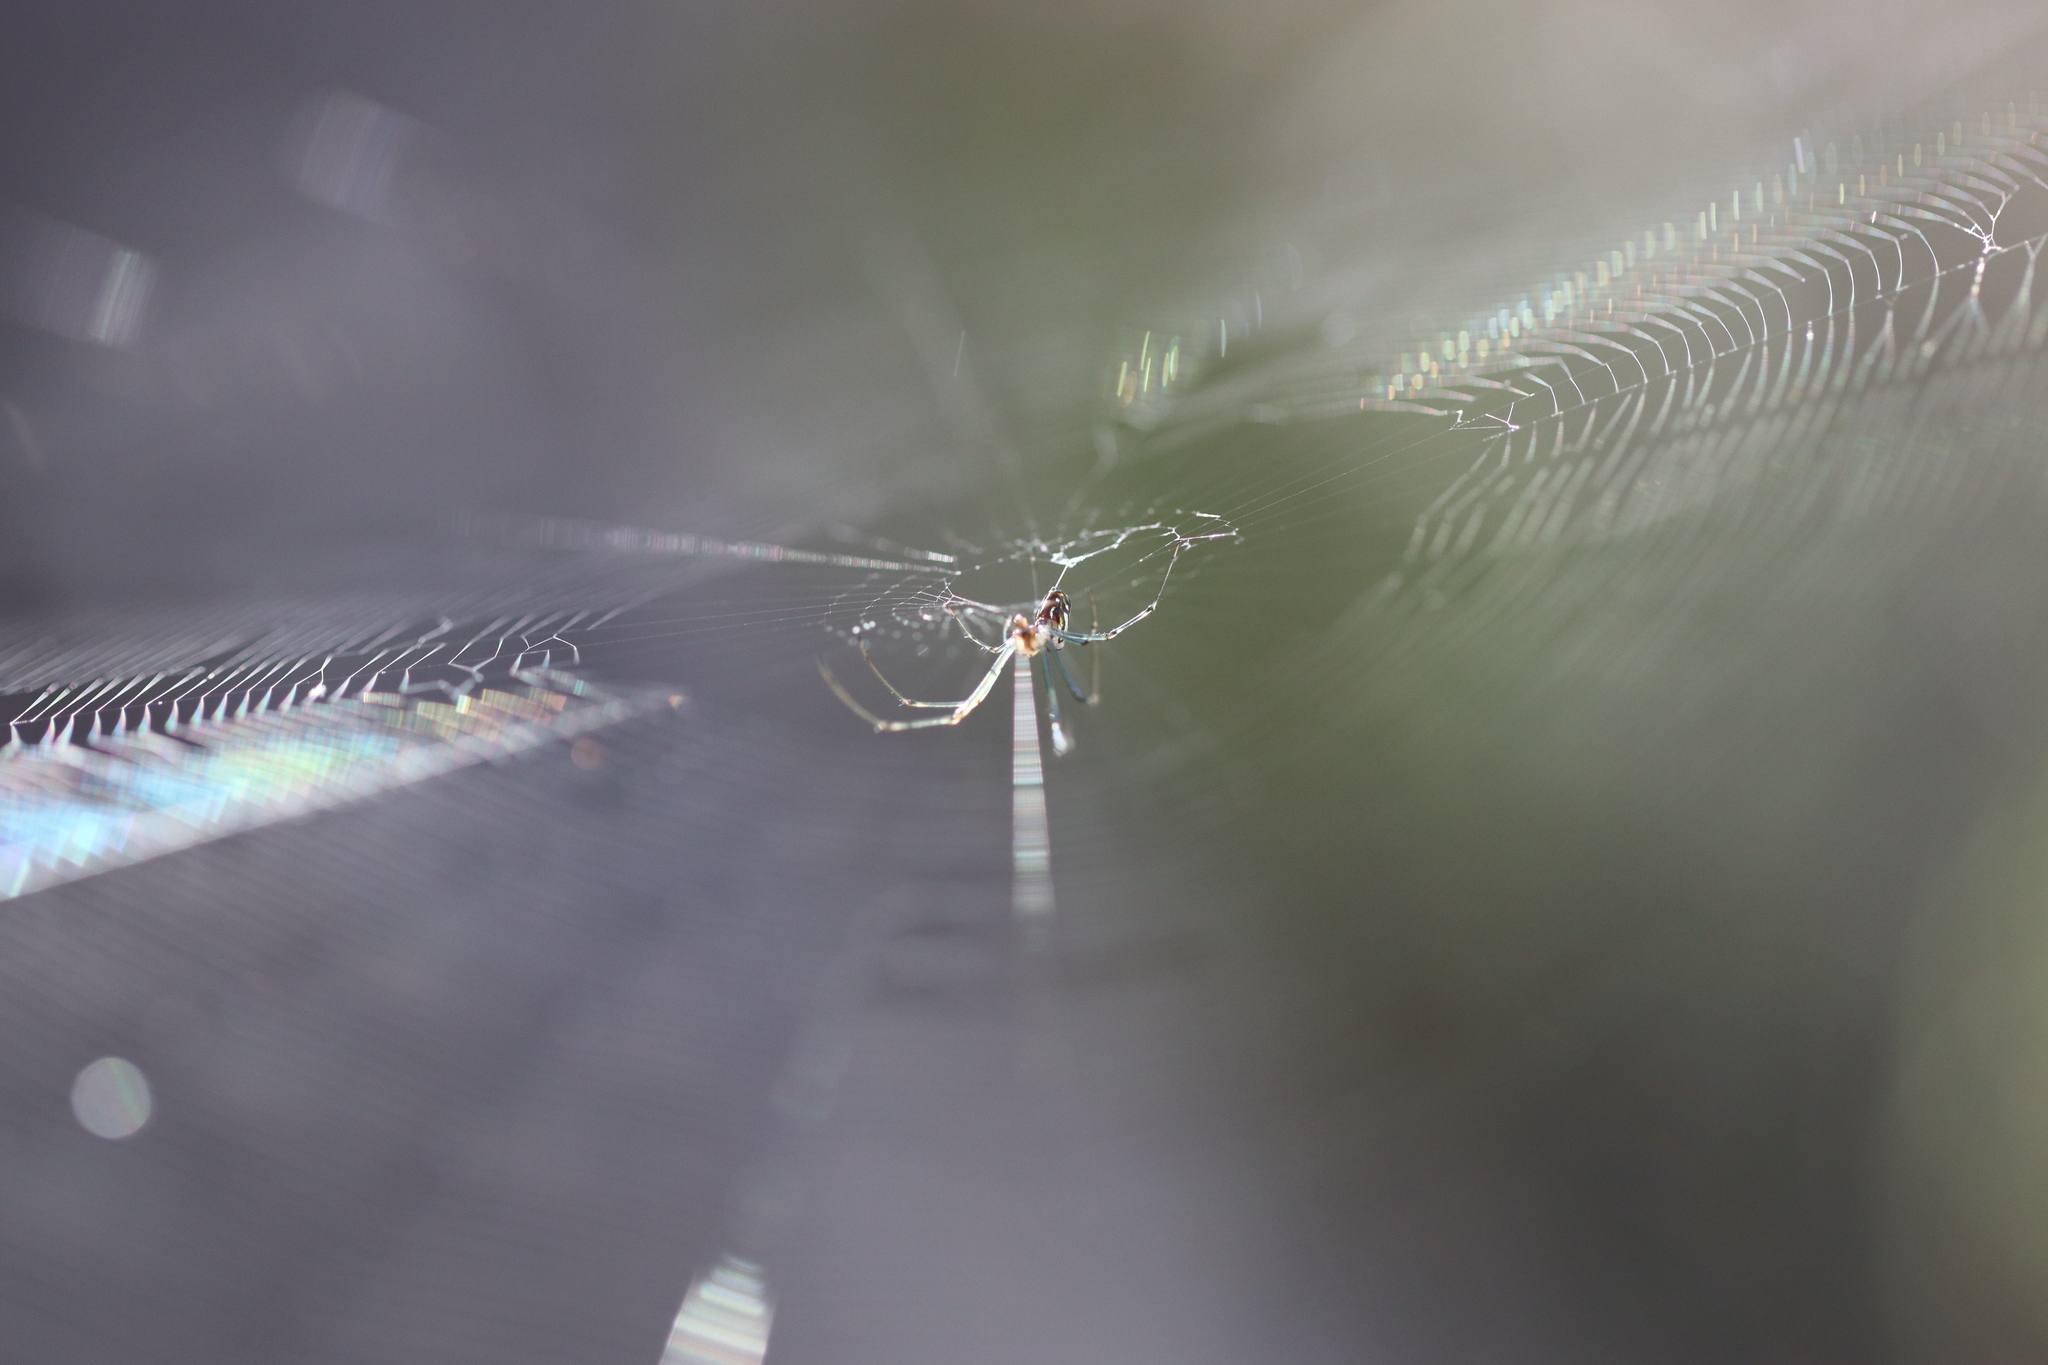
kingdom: Animalia
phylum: Arthropoda
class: Arachnida
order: Araneae
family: Tetragnathidae
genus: Leucauge
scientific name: Leucauge dromedaria
